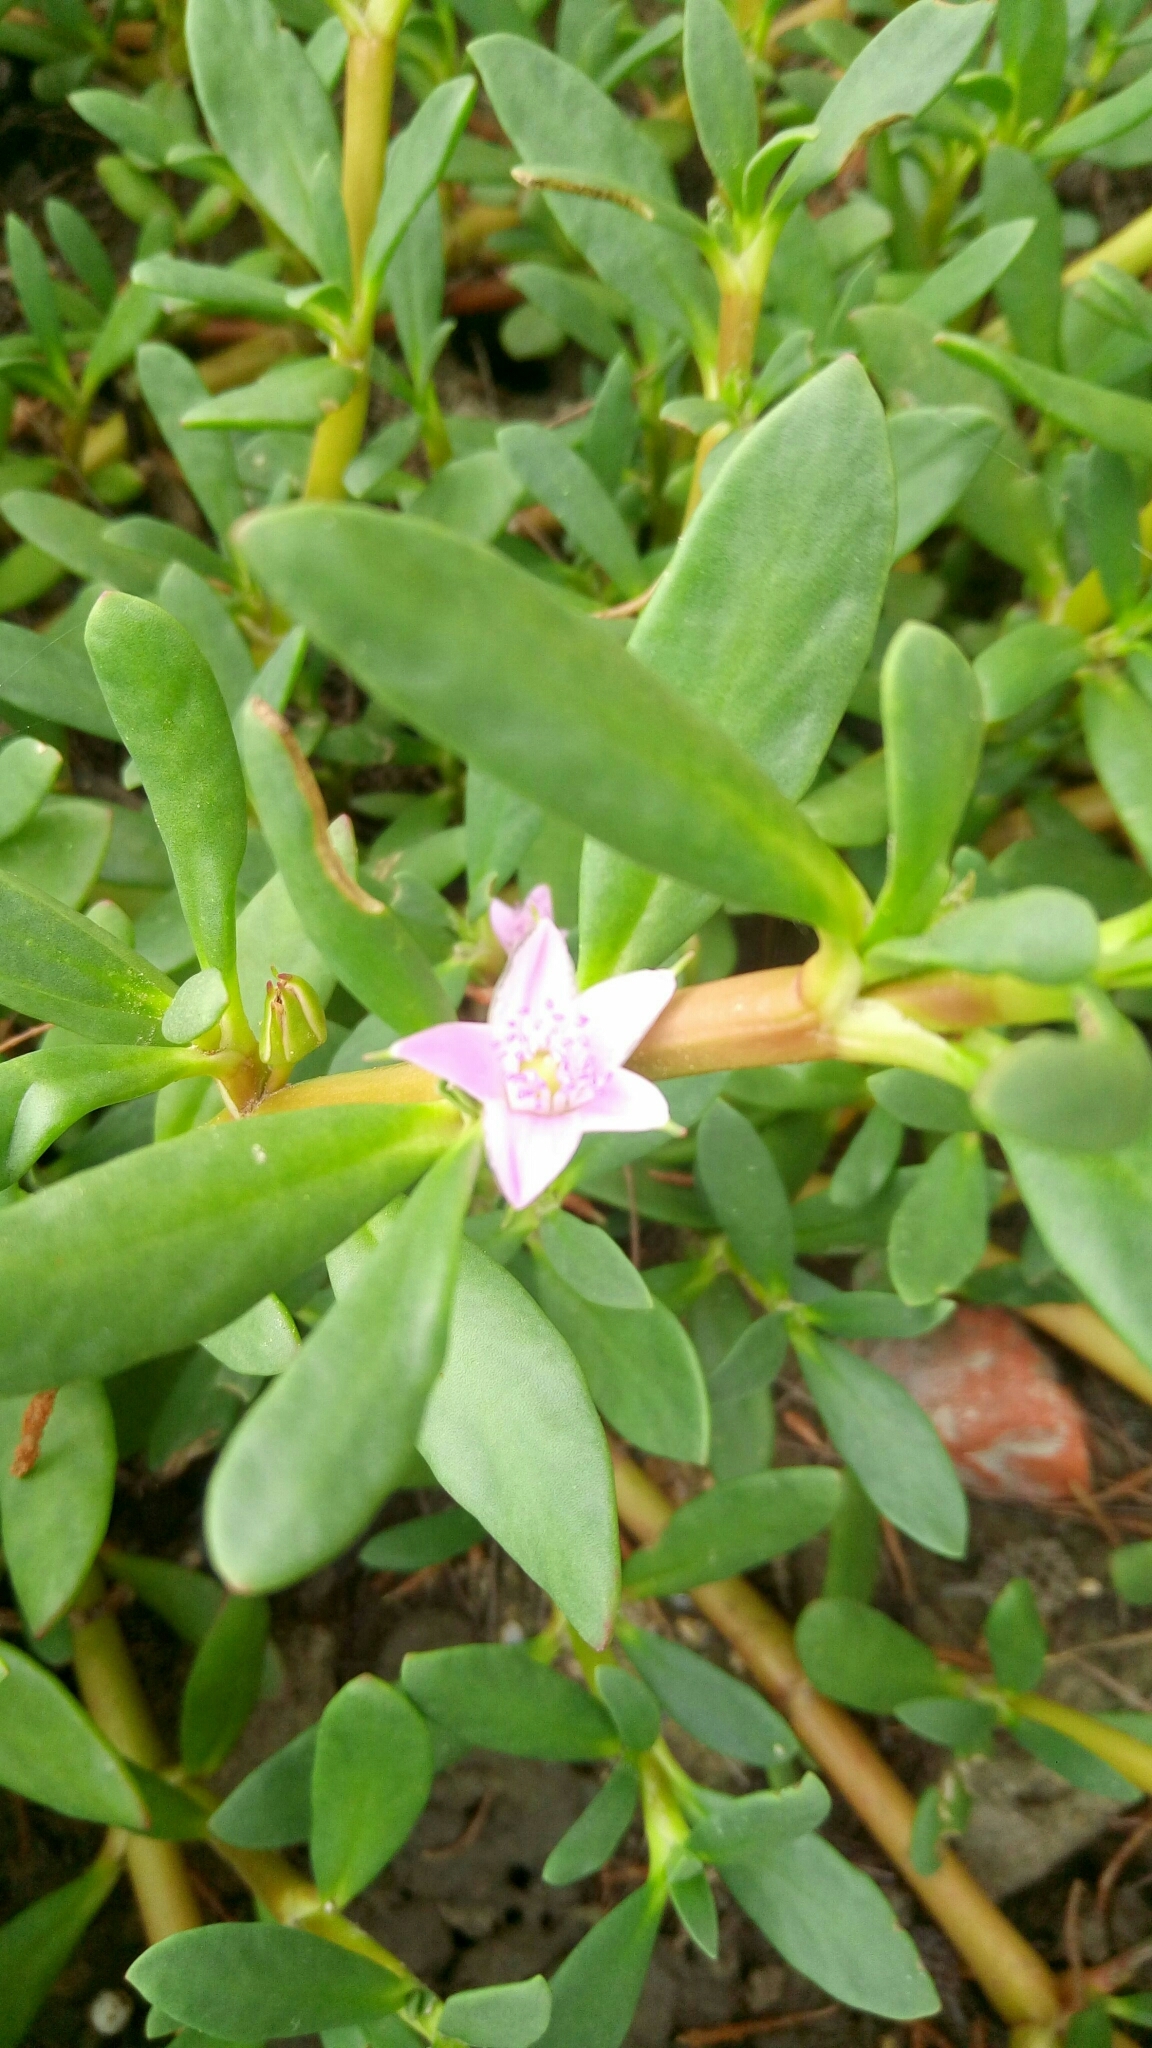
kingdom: Plantae
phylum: Tracheophyta
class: Magnoliopsida
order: Caryophyllales
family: Aizoaceae
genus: Sesuvium
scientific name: Sesuvium portulacastrum
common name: Sea-purslane
